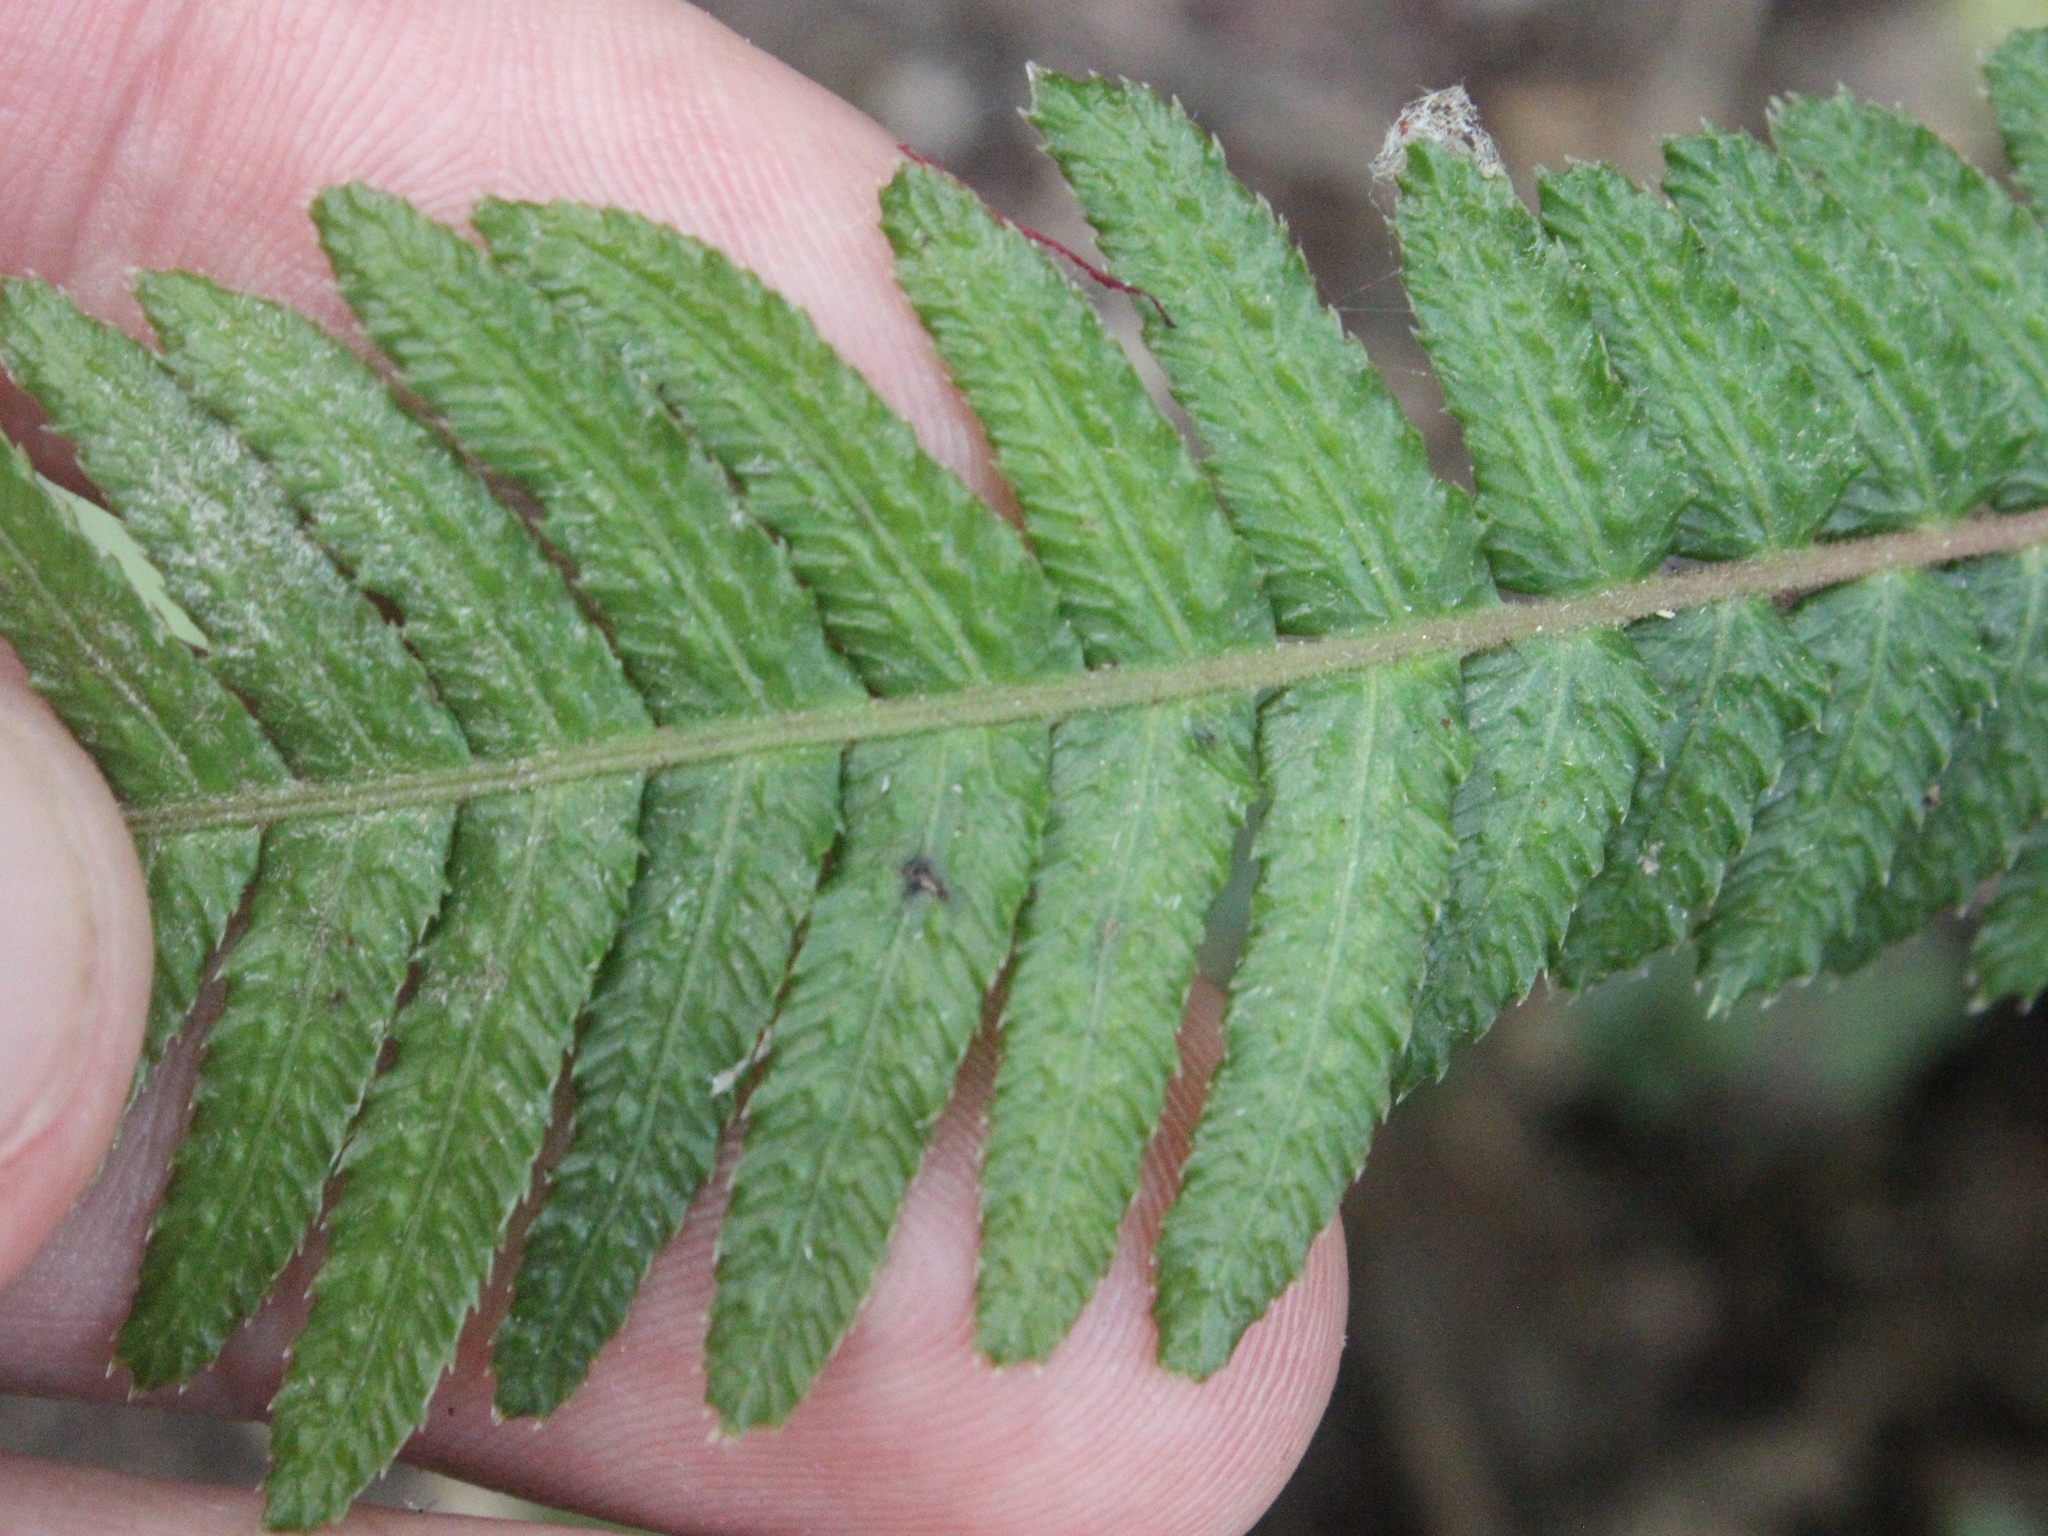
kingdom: Plantae
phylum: Tracheophyta
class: Polypodiopsida
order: Polypodiales
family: Blechnaceae
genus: Doodia
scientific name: Doodia australis
